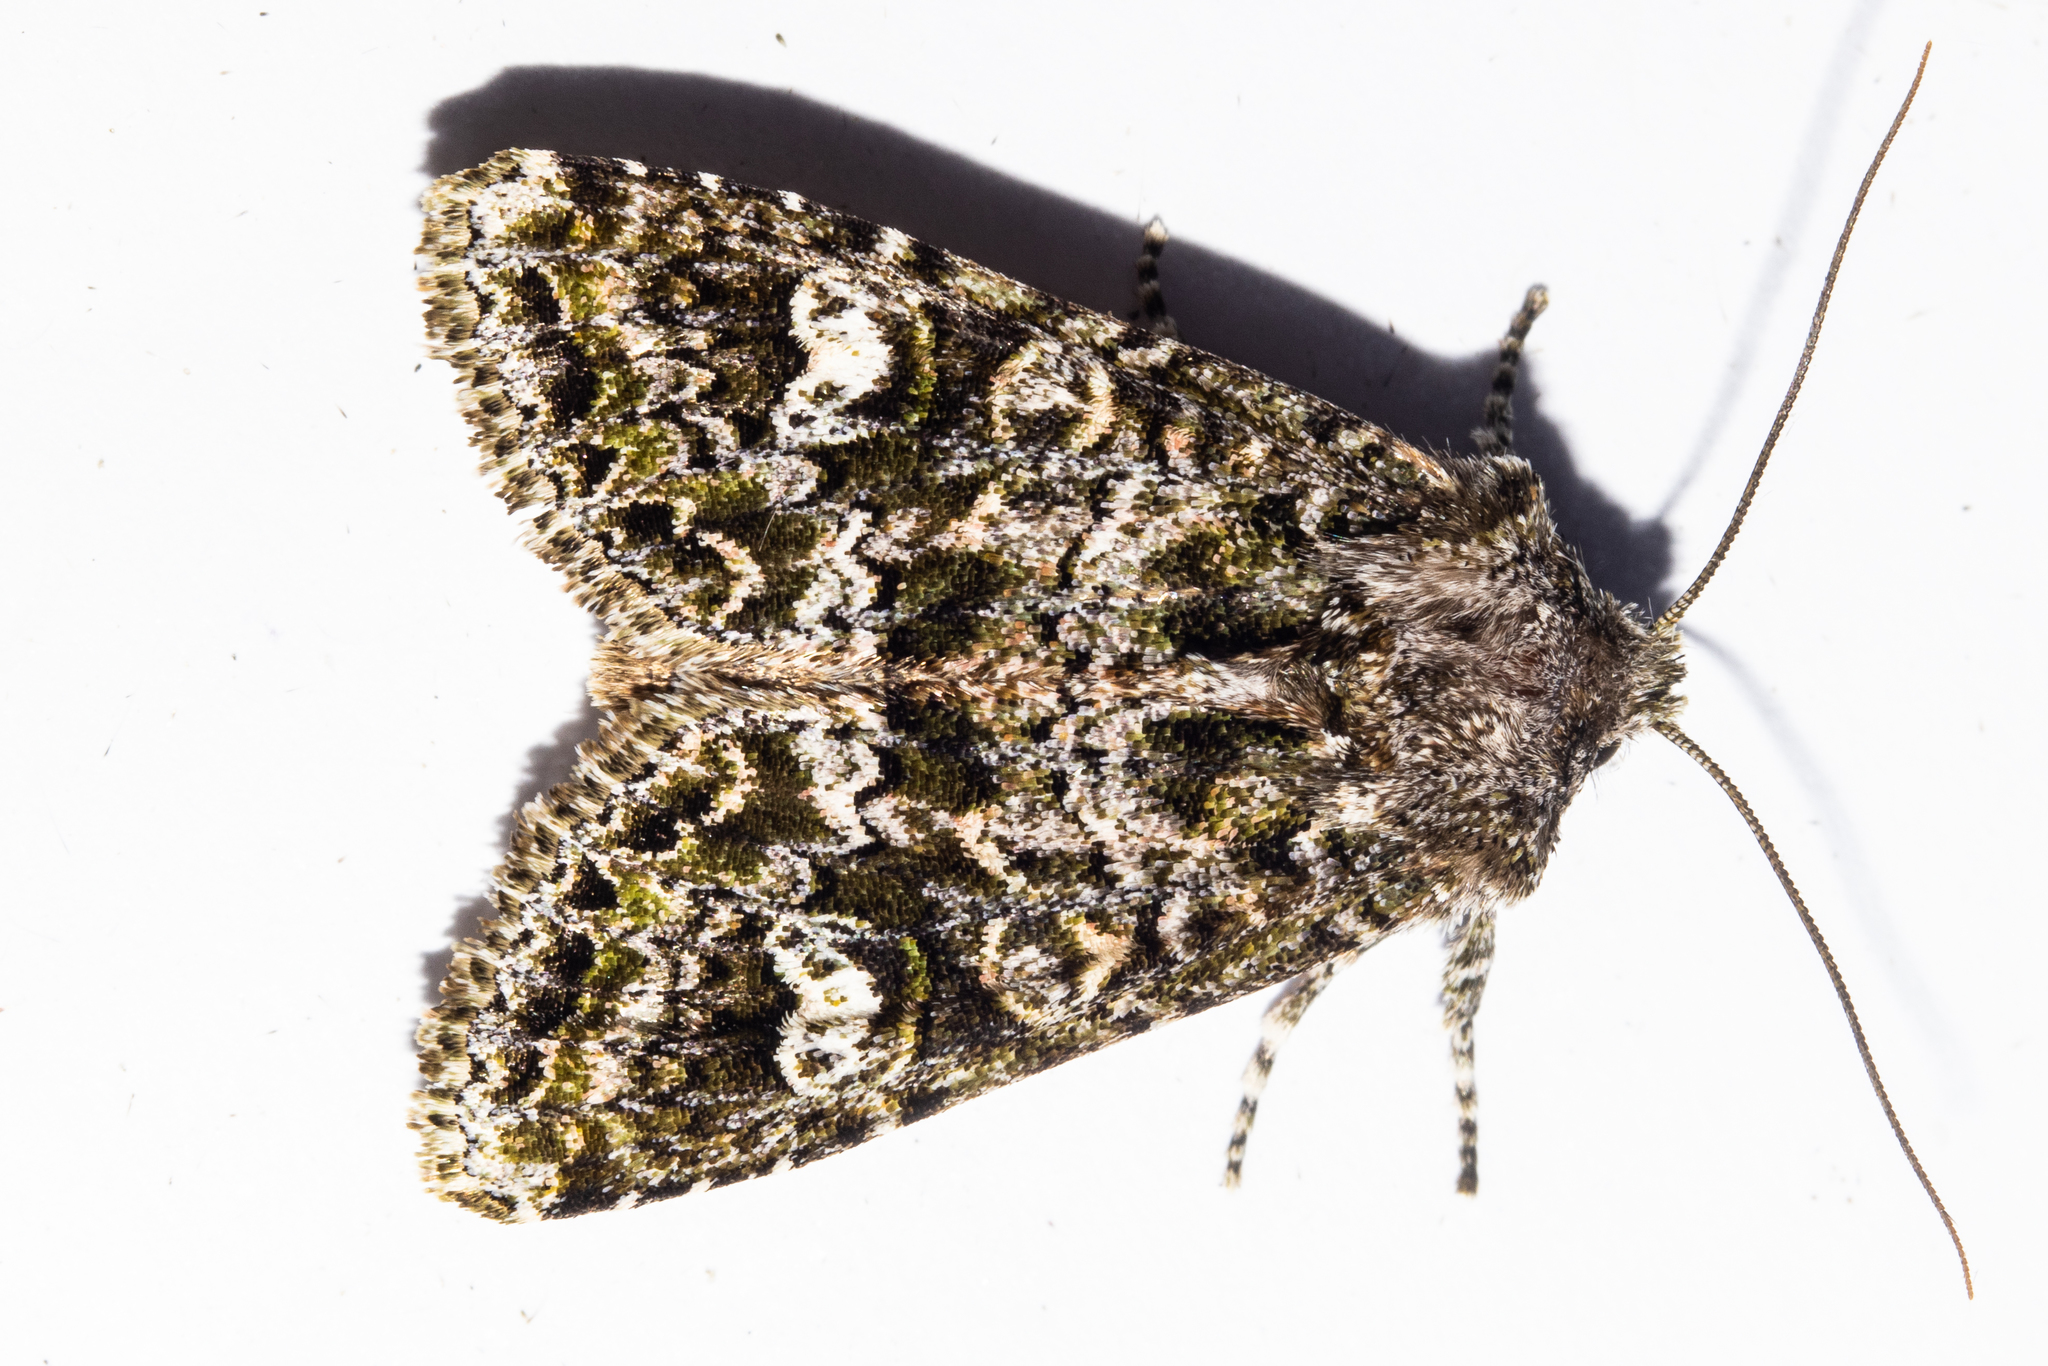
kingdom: Animalia
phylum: Arthropoda
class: Insecta
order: Lepidoptera
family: Noctuidae
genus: Ichneutica
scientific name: Ichneutica
